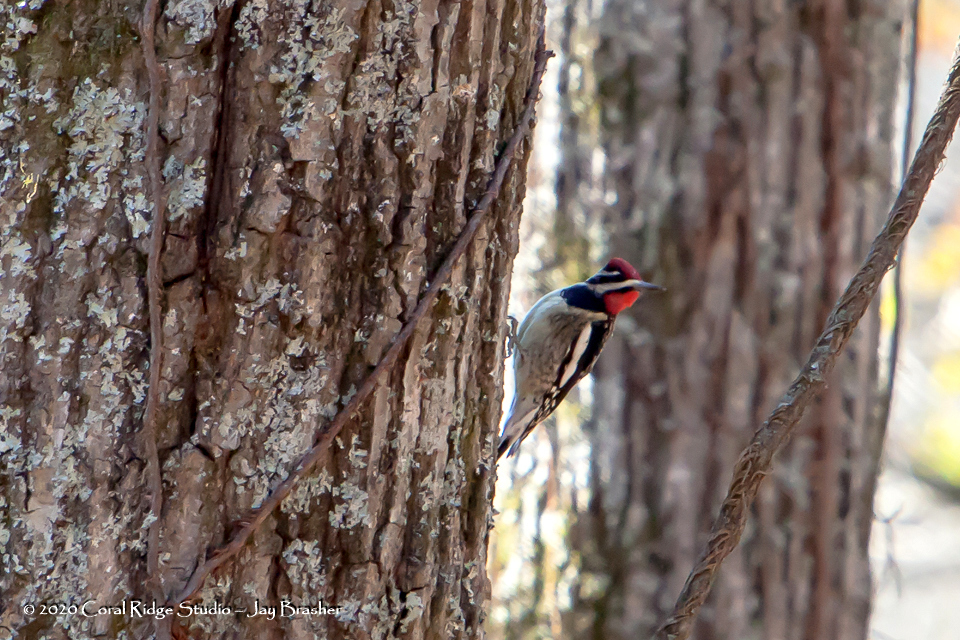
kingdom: Animalia
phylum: Chordata
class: Aves
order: Piciformes
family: Picidae
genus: Sphyrapicus
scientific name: Sphyrapicus varius
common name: Yellow-bellied sapsucker
